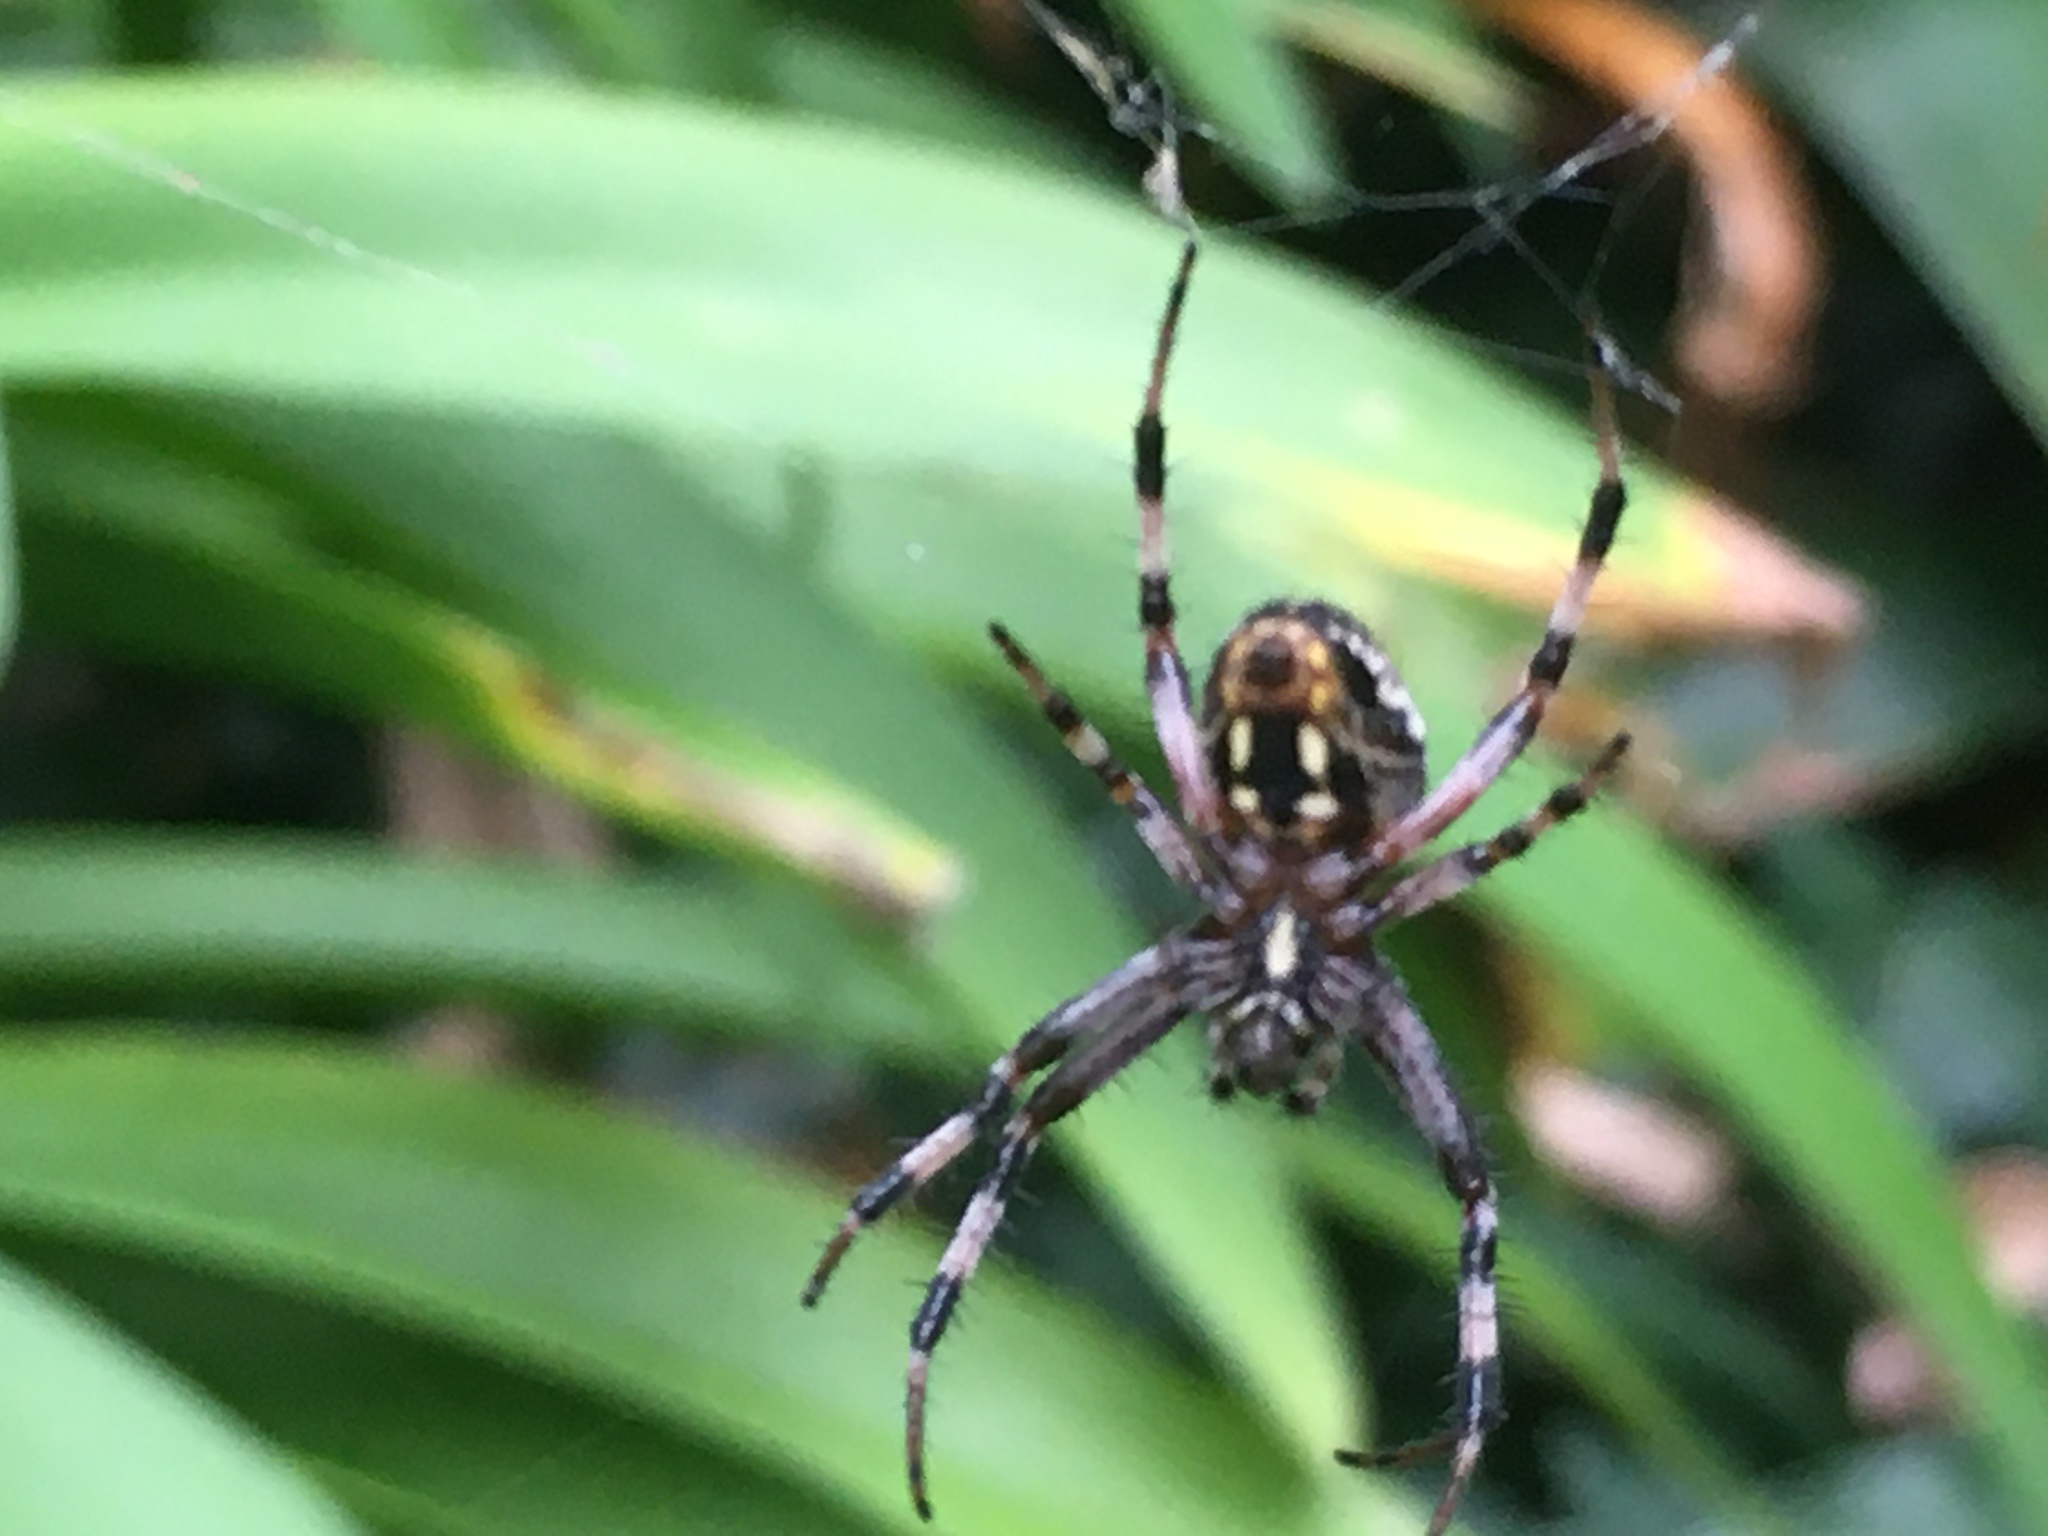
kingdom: Animalia
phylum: Arthropoda
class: Arachnida
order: Araneae
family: Araneidae
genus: Neoscona
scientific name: Neoscona oaxacensis
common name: Orb weavers
